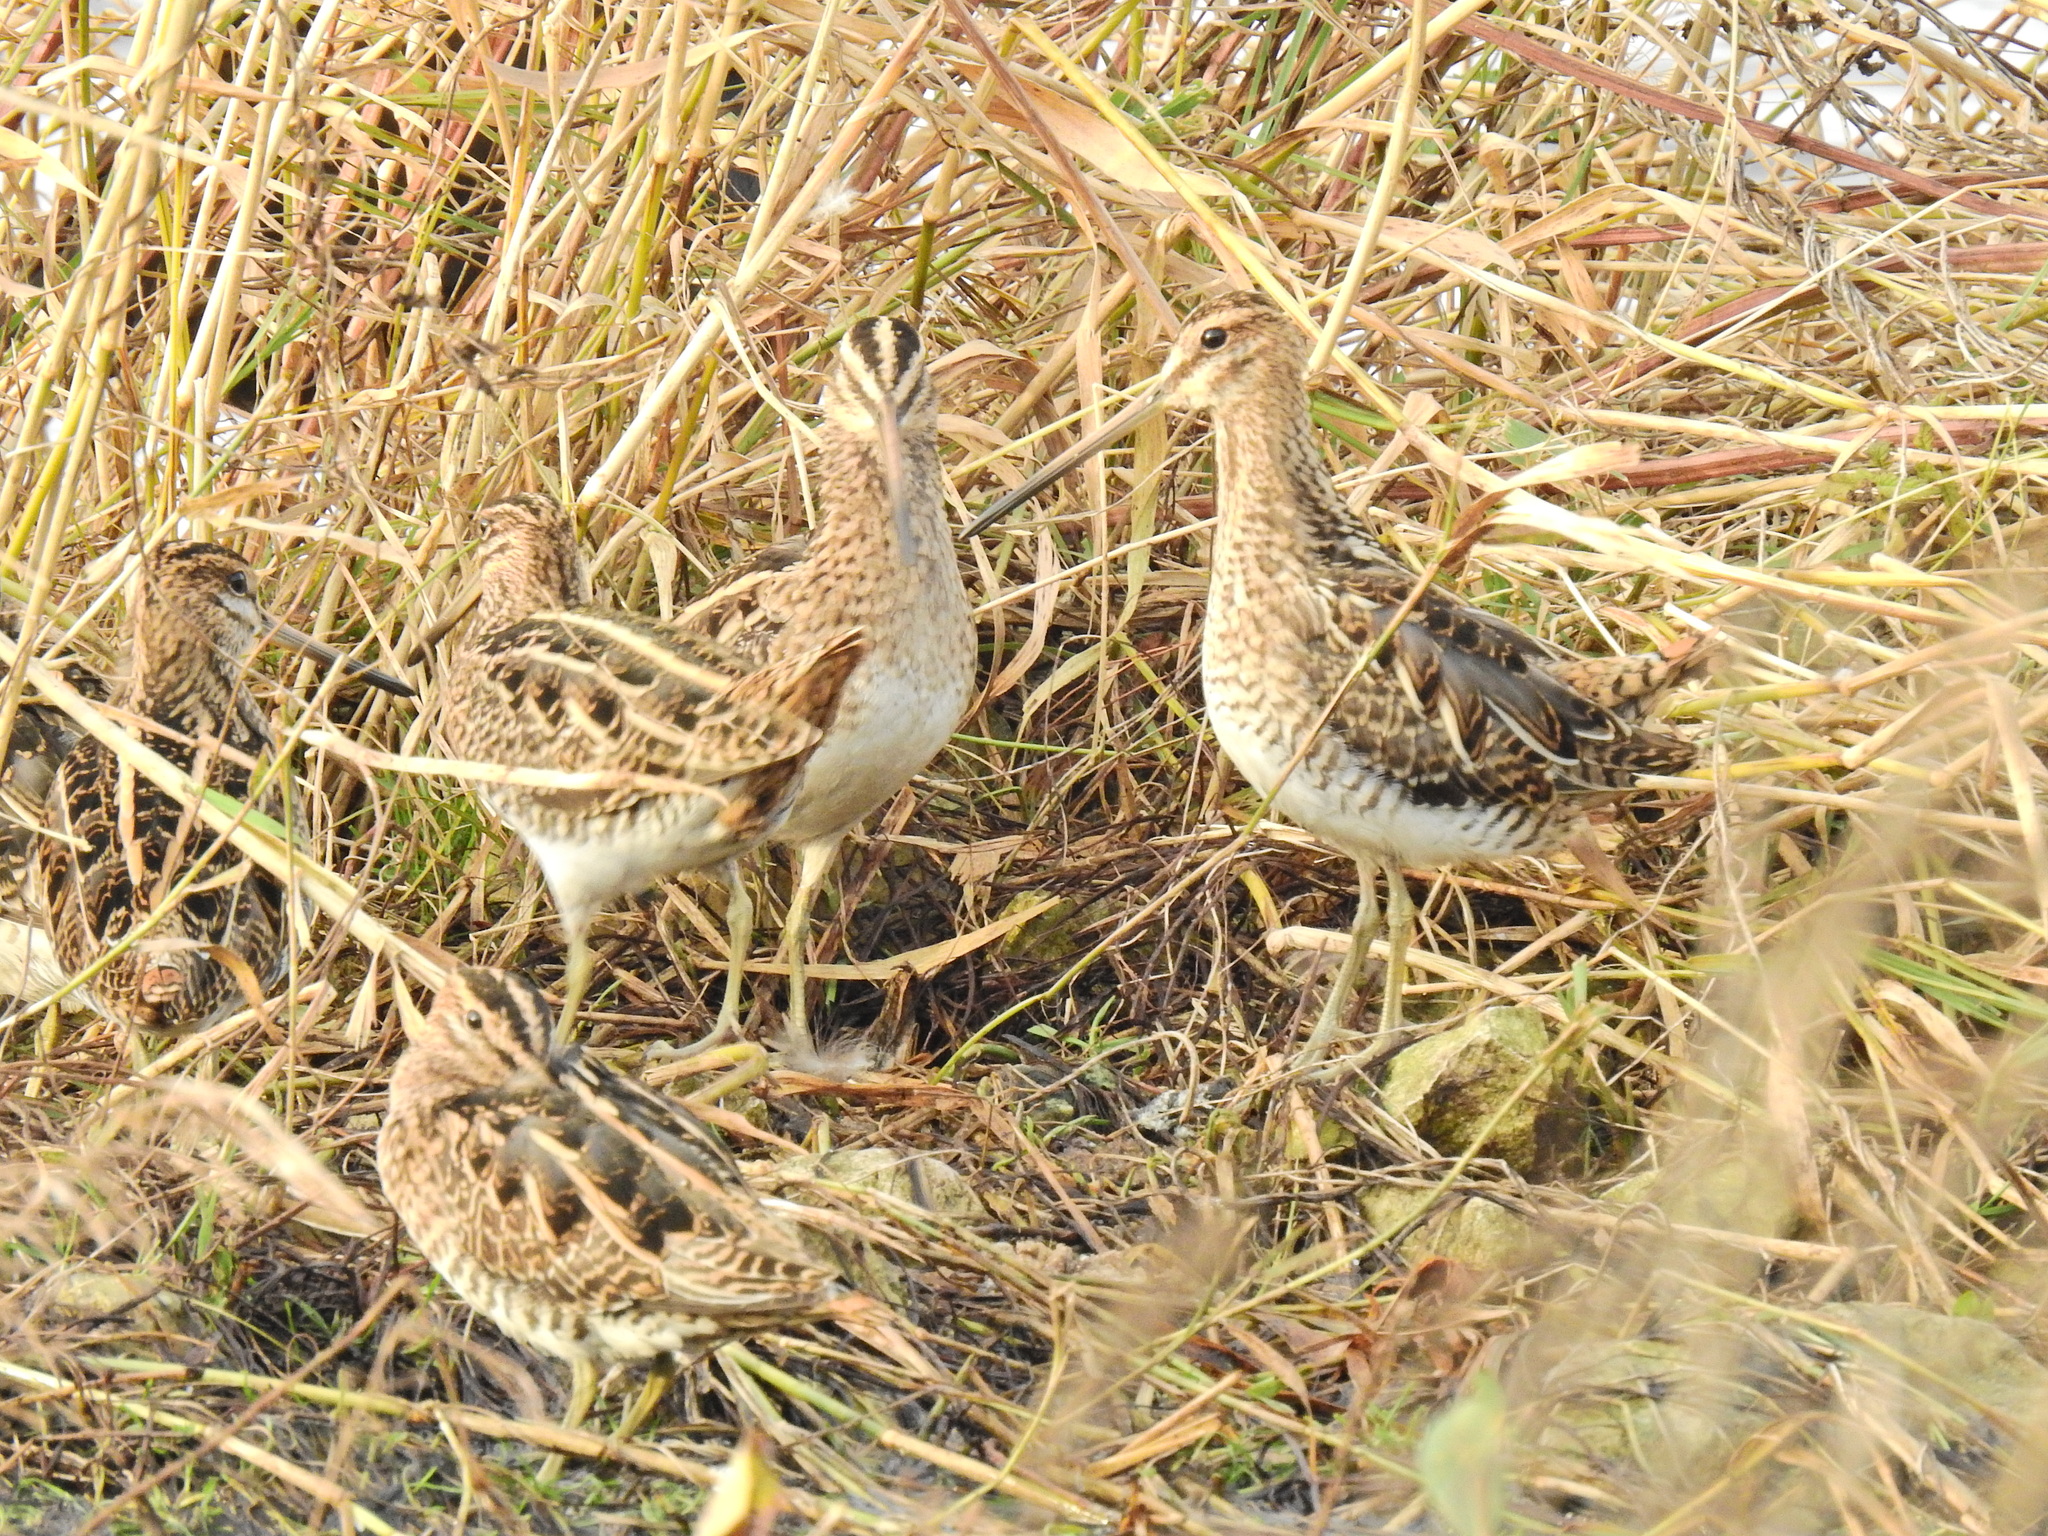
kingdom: Animalia
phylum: Chordata
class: Aves
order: Charadriiformes
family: Scolopacidae
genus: Gallinago
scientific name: Gallinago gallinago
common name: Common snipe
